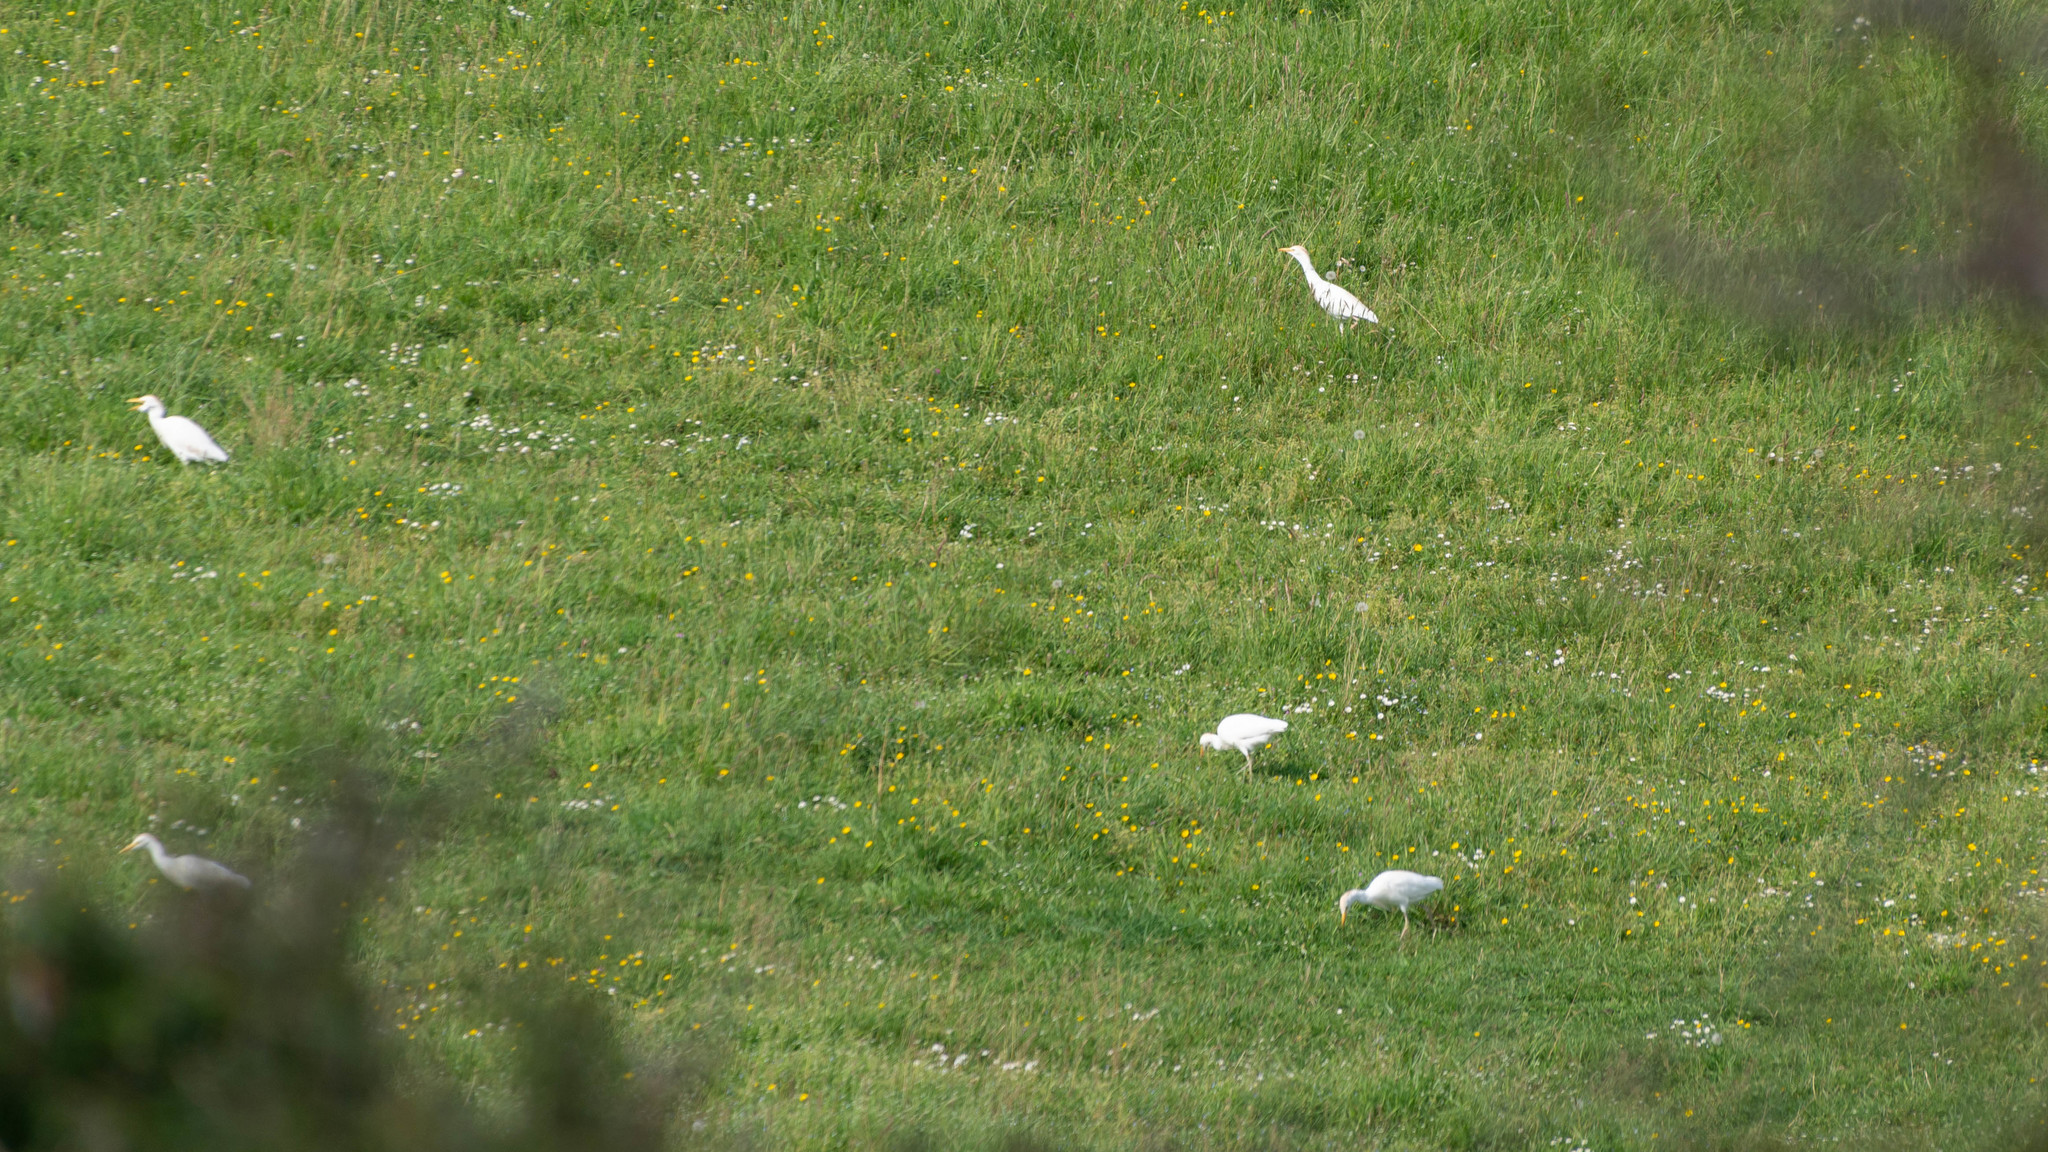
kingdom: Animalia
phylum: Chordata
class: Aves
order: Pelecaniformes
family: Ardeidae
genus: Bubulcus
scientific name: Bubulcus ibis
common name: Cattle egret
